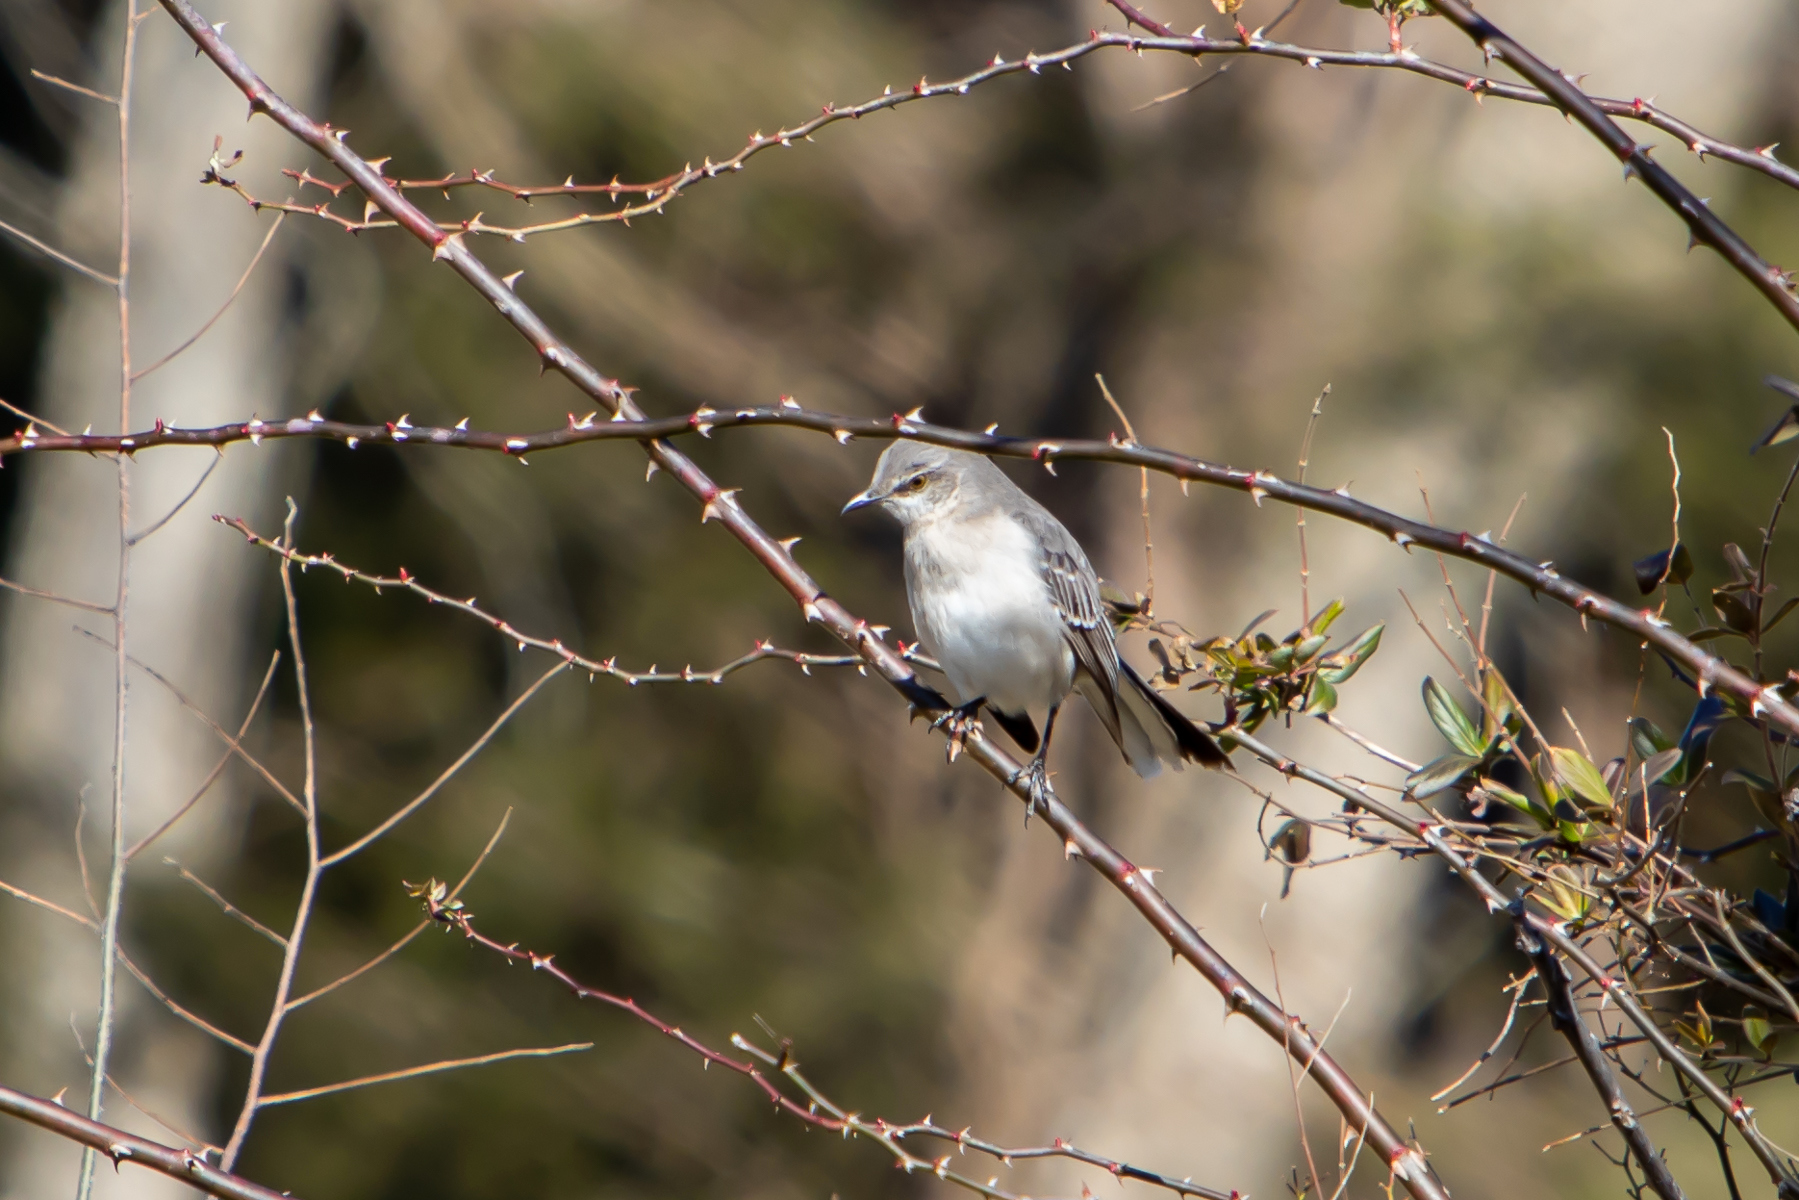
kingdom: Animalia
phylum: Chordata
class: Aves
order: Passeriformes
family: Mimidae
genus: Mimus
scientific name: Mimus polyglottos
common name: Northern mockingbird
